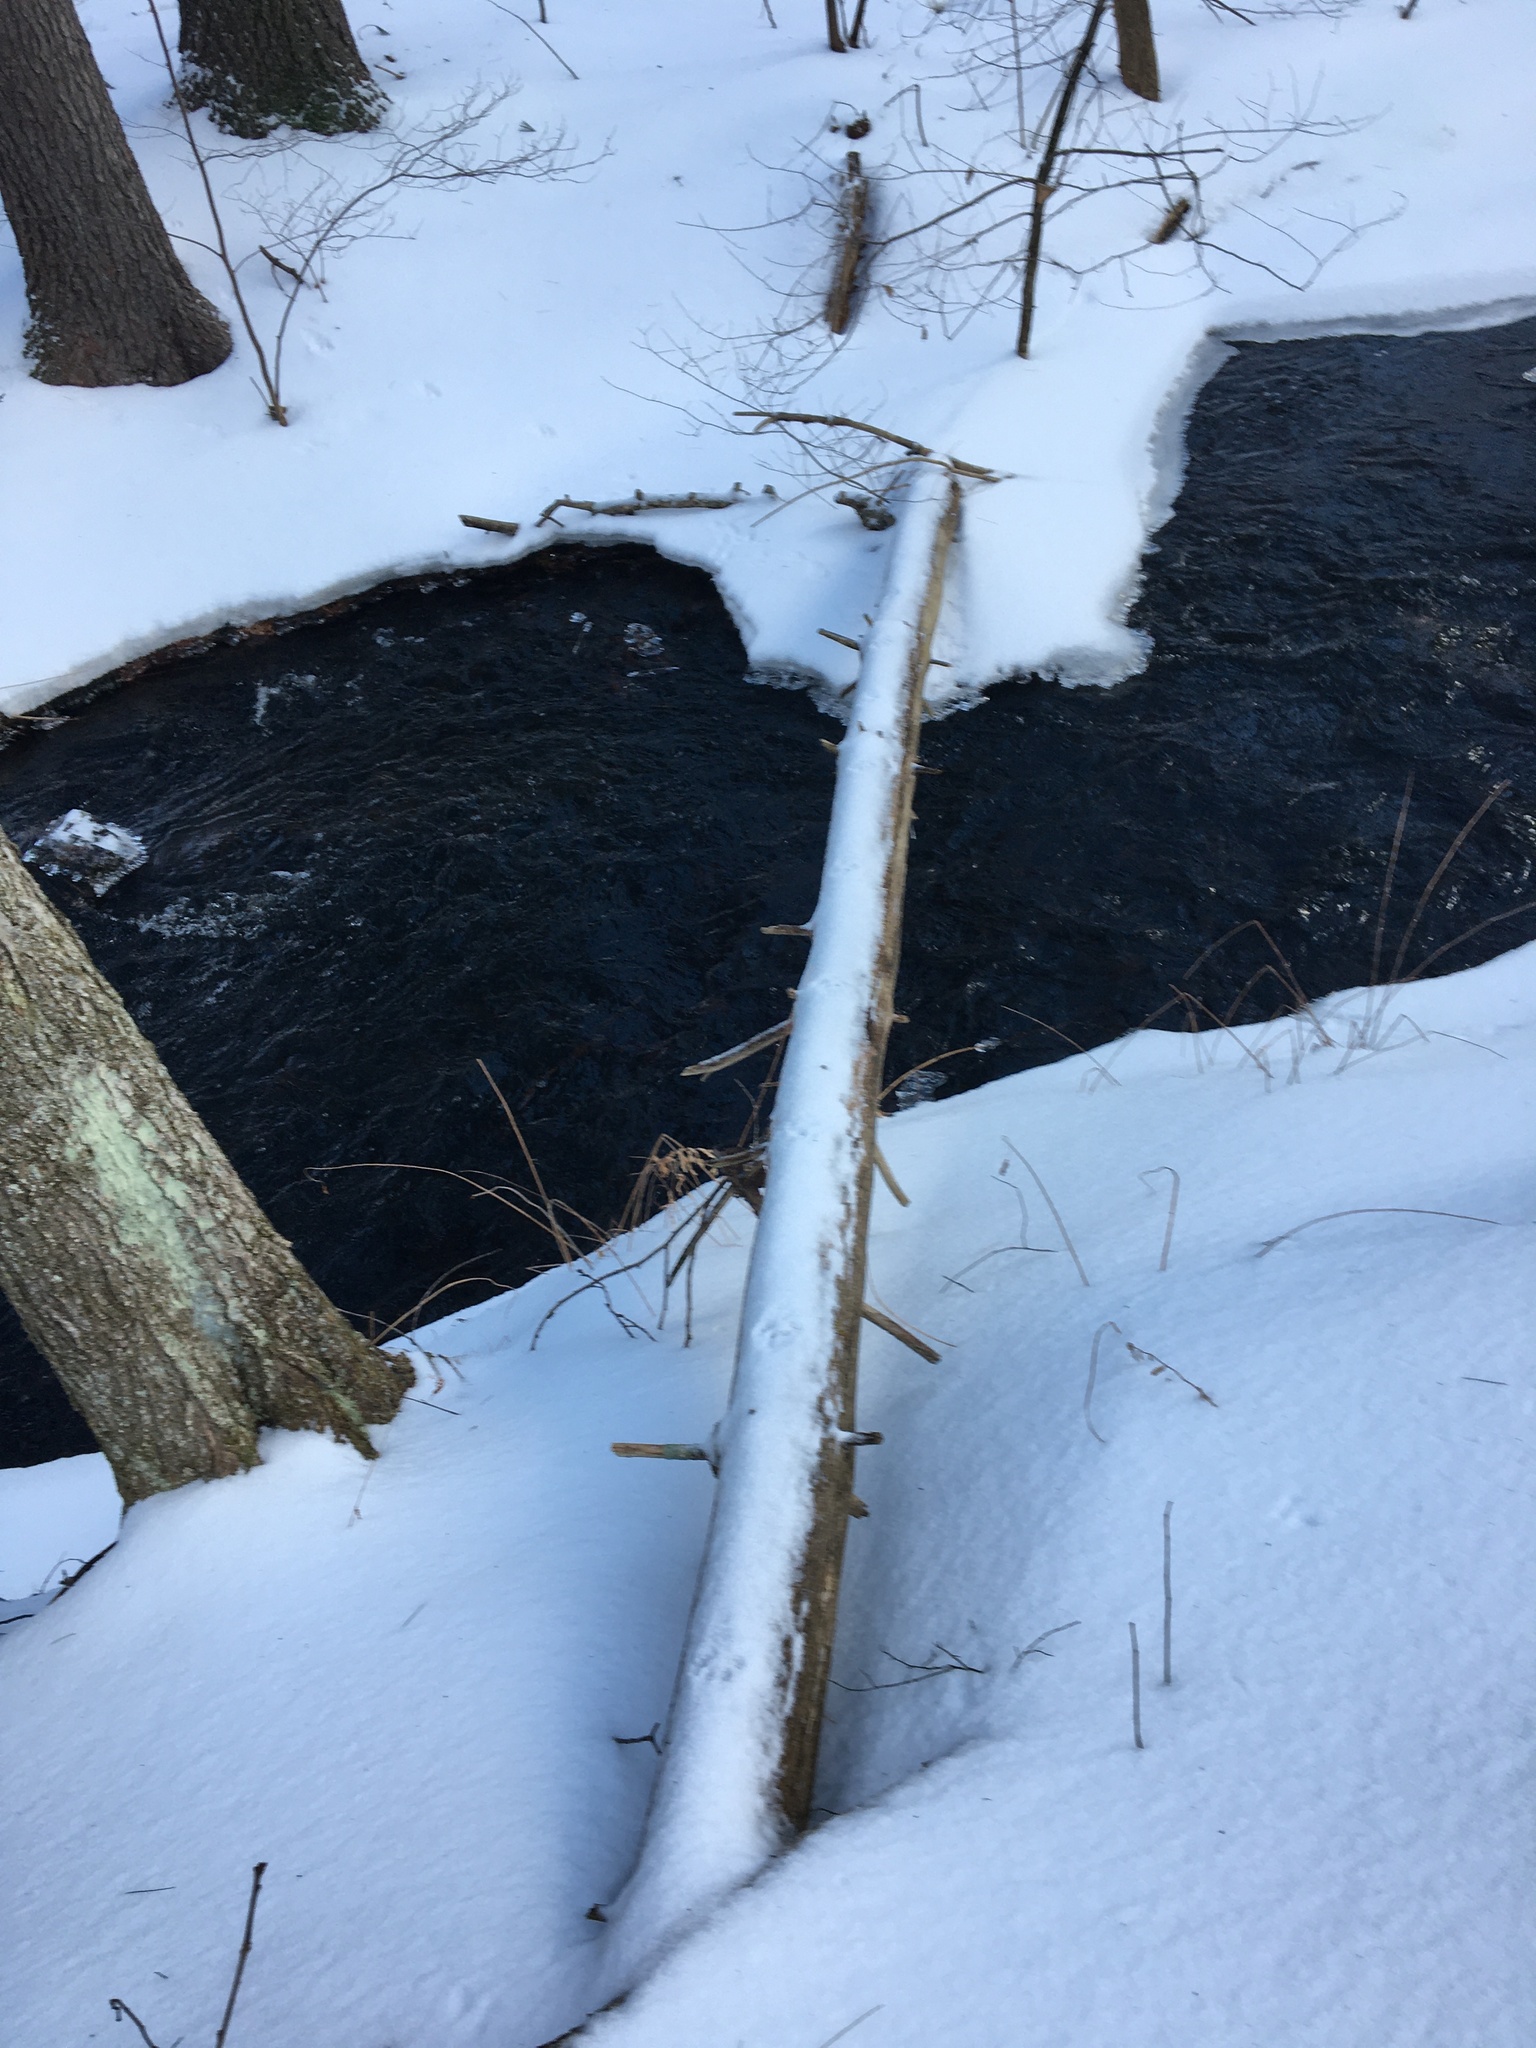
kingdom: Animalia
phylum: Chordata
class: Mammalia
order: Carnivora
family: Felidae
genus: Lynx
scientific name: Lynx rufus
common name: Bobcat
